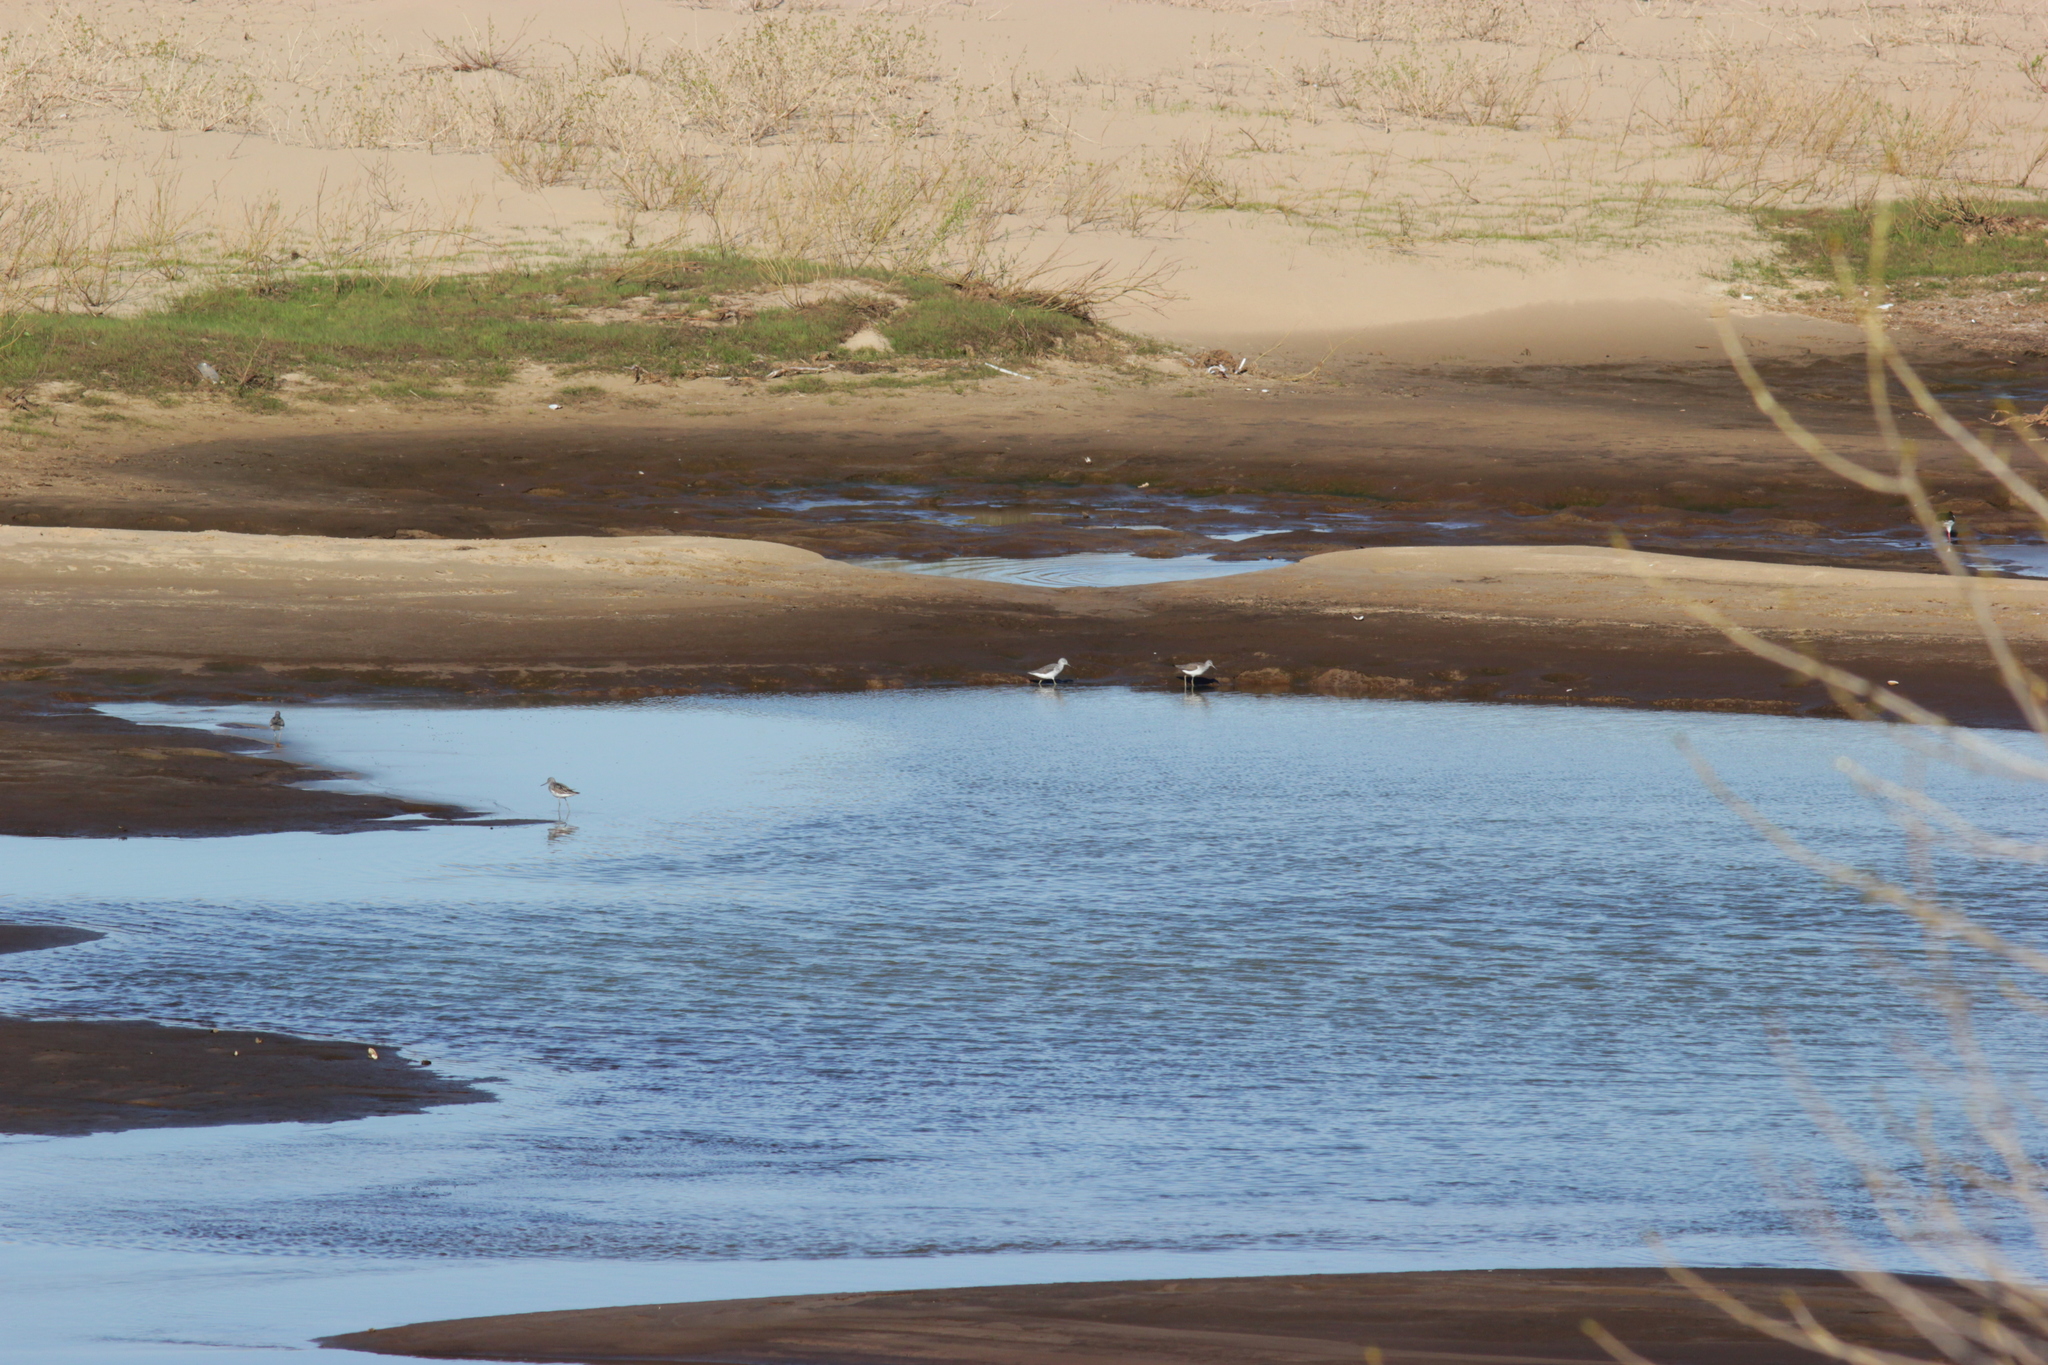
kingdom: Animalia
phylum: Chordata
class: Aves
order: Charadriiformes
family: Scolopacidae
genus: Tringa
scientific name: Tringa ochropus
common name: Green sandpiper
